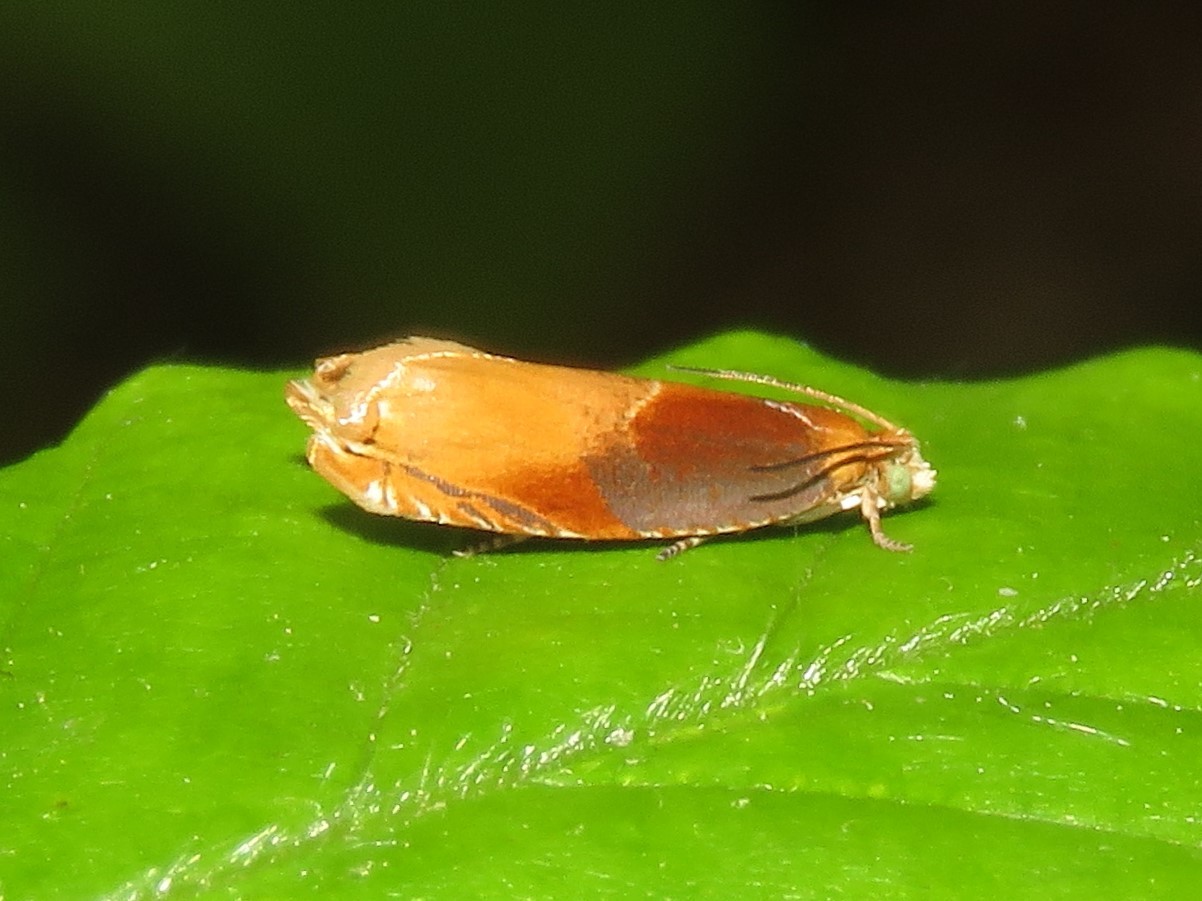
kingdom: Animalia
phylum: Arthropoda
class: Insecta
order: Lepidoptera
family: Tortricidae
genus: Ancylis
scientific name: Ancylis divisana
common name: Two-toned ancylis moth
